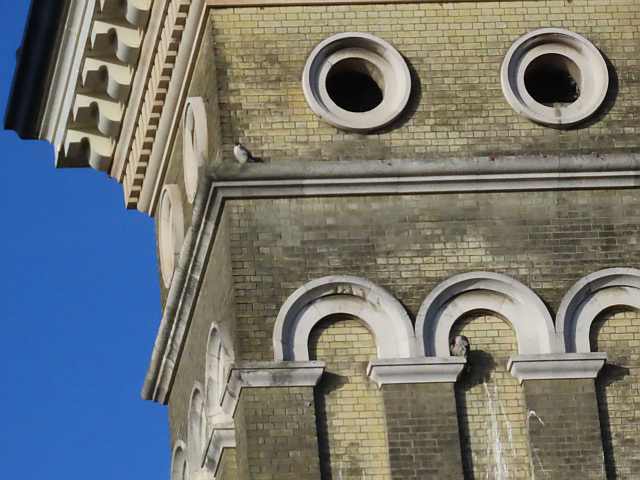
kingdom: Animalia
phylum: Chordata
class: Aves
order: Falconiformes
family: Falconidae
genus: Falco
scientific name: Falco peregrinus
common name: Peregrine falcon
